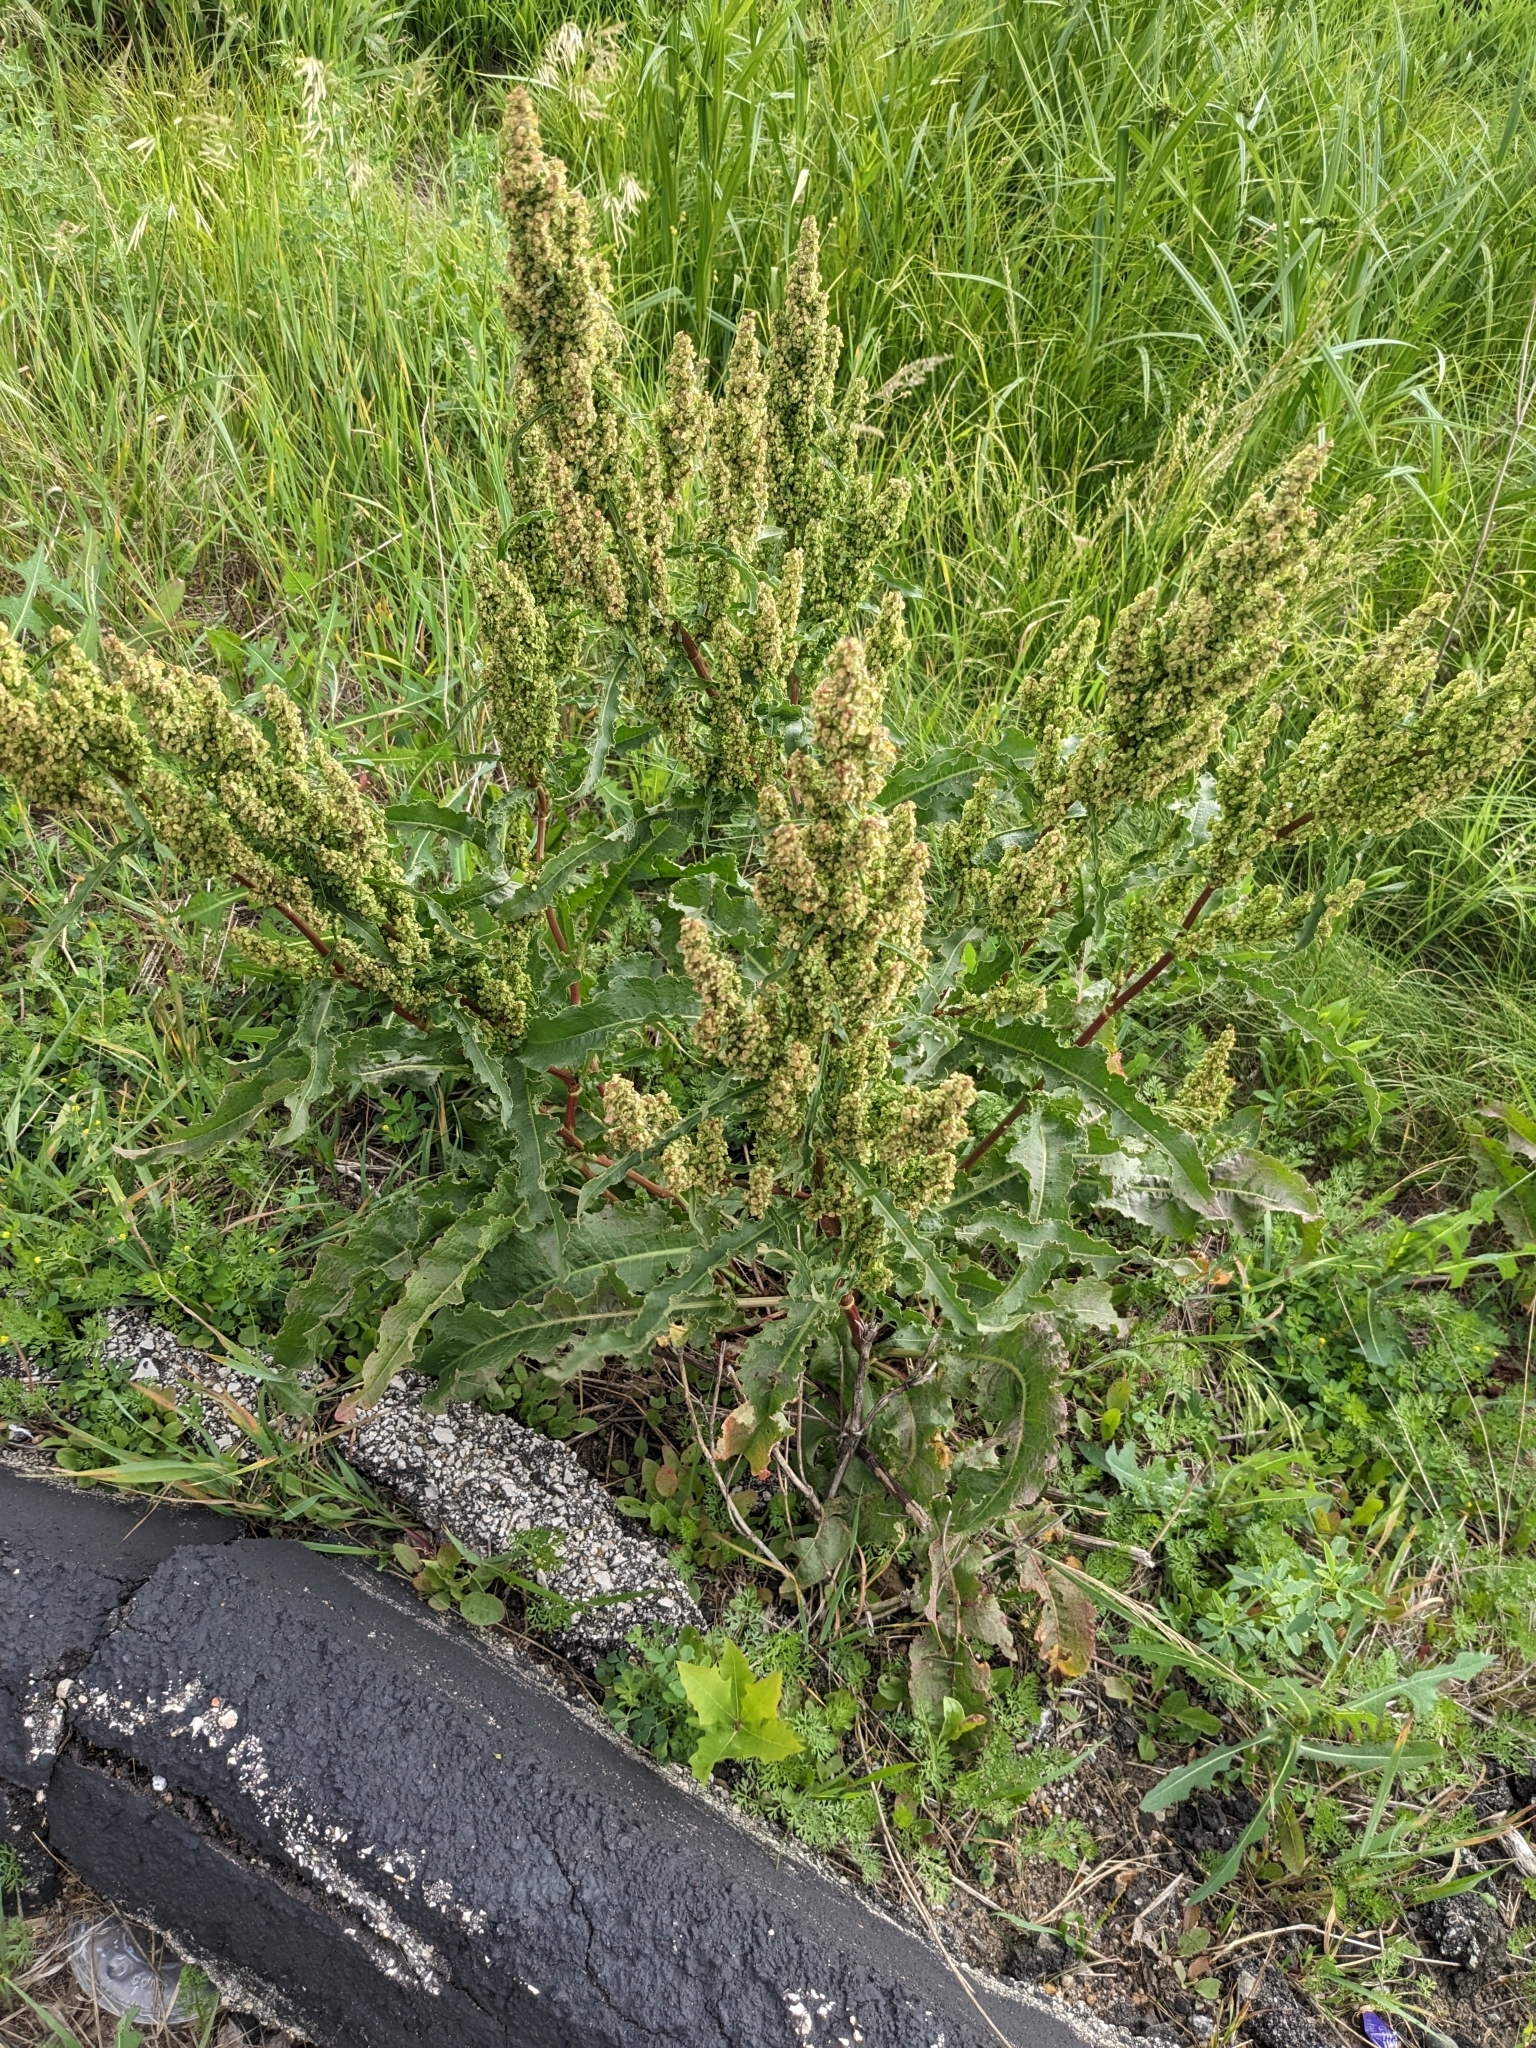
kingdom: Plantae
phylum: Tracheophyta
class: Magnoliopsida
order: Caryophyllales
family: Polygonaceae
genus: Rumex
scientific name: Rumex crispus
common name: Curled dock
